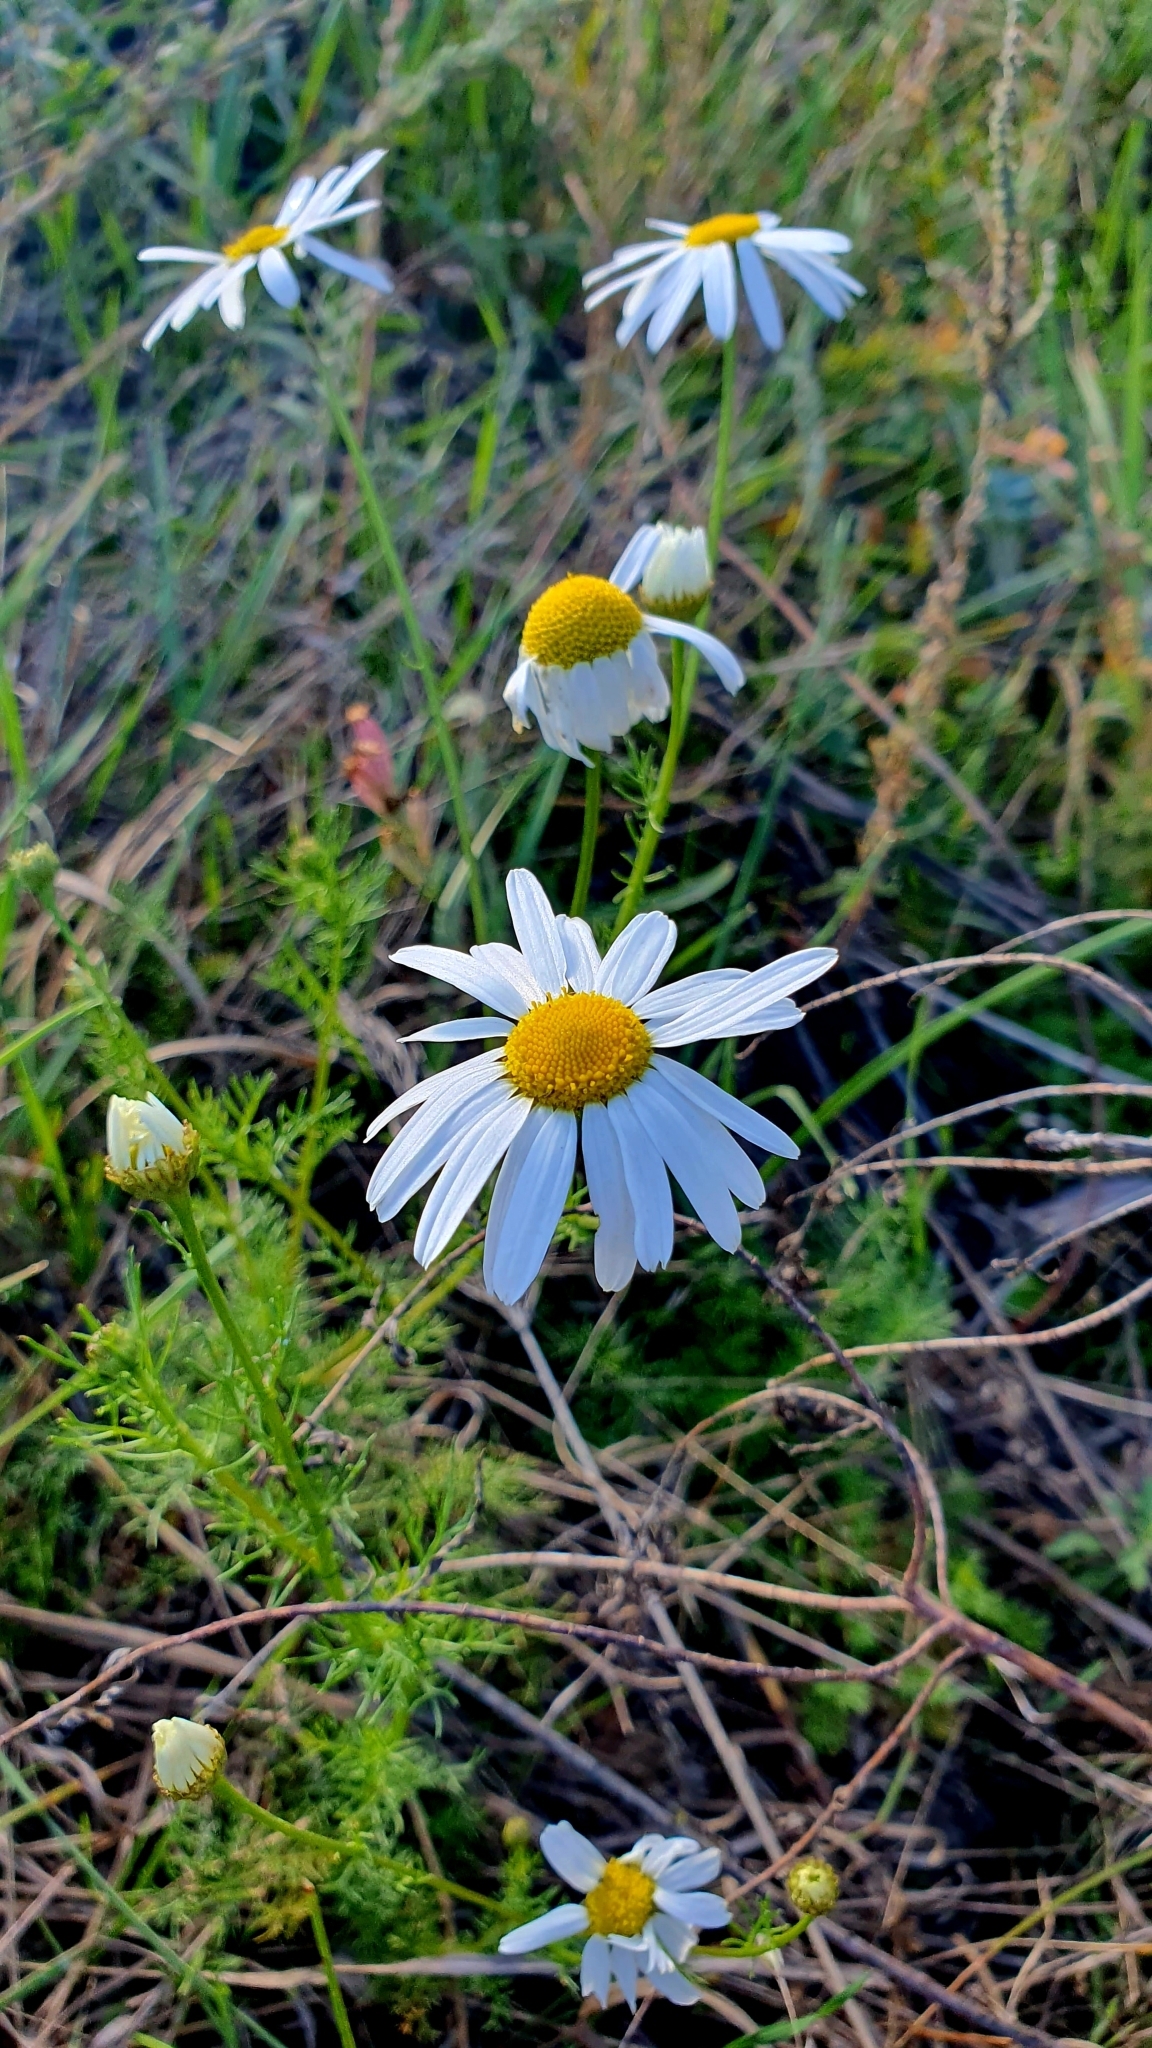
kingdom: Plantae
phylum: Tracheophyta
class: Magnoliopsida
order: Asterales
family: Asteraceae
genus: Tripleurospermum
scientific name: Tripleurospermum inodorum
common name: Scentless mayweed
